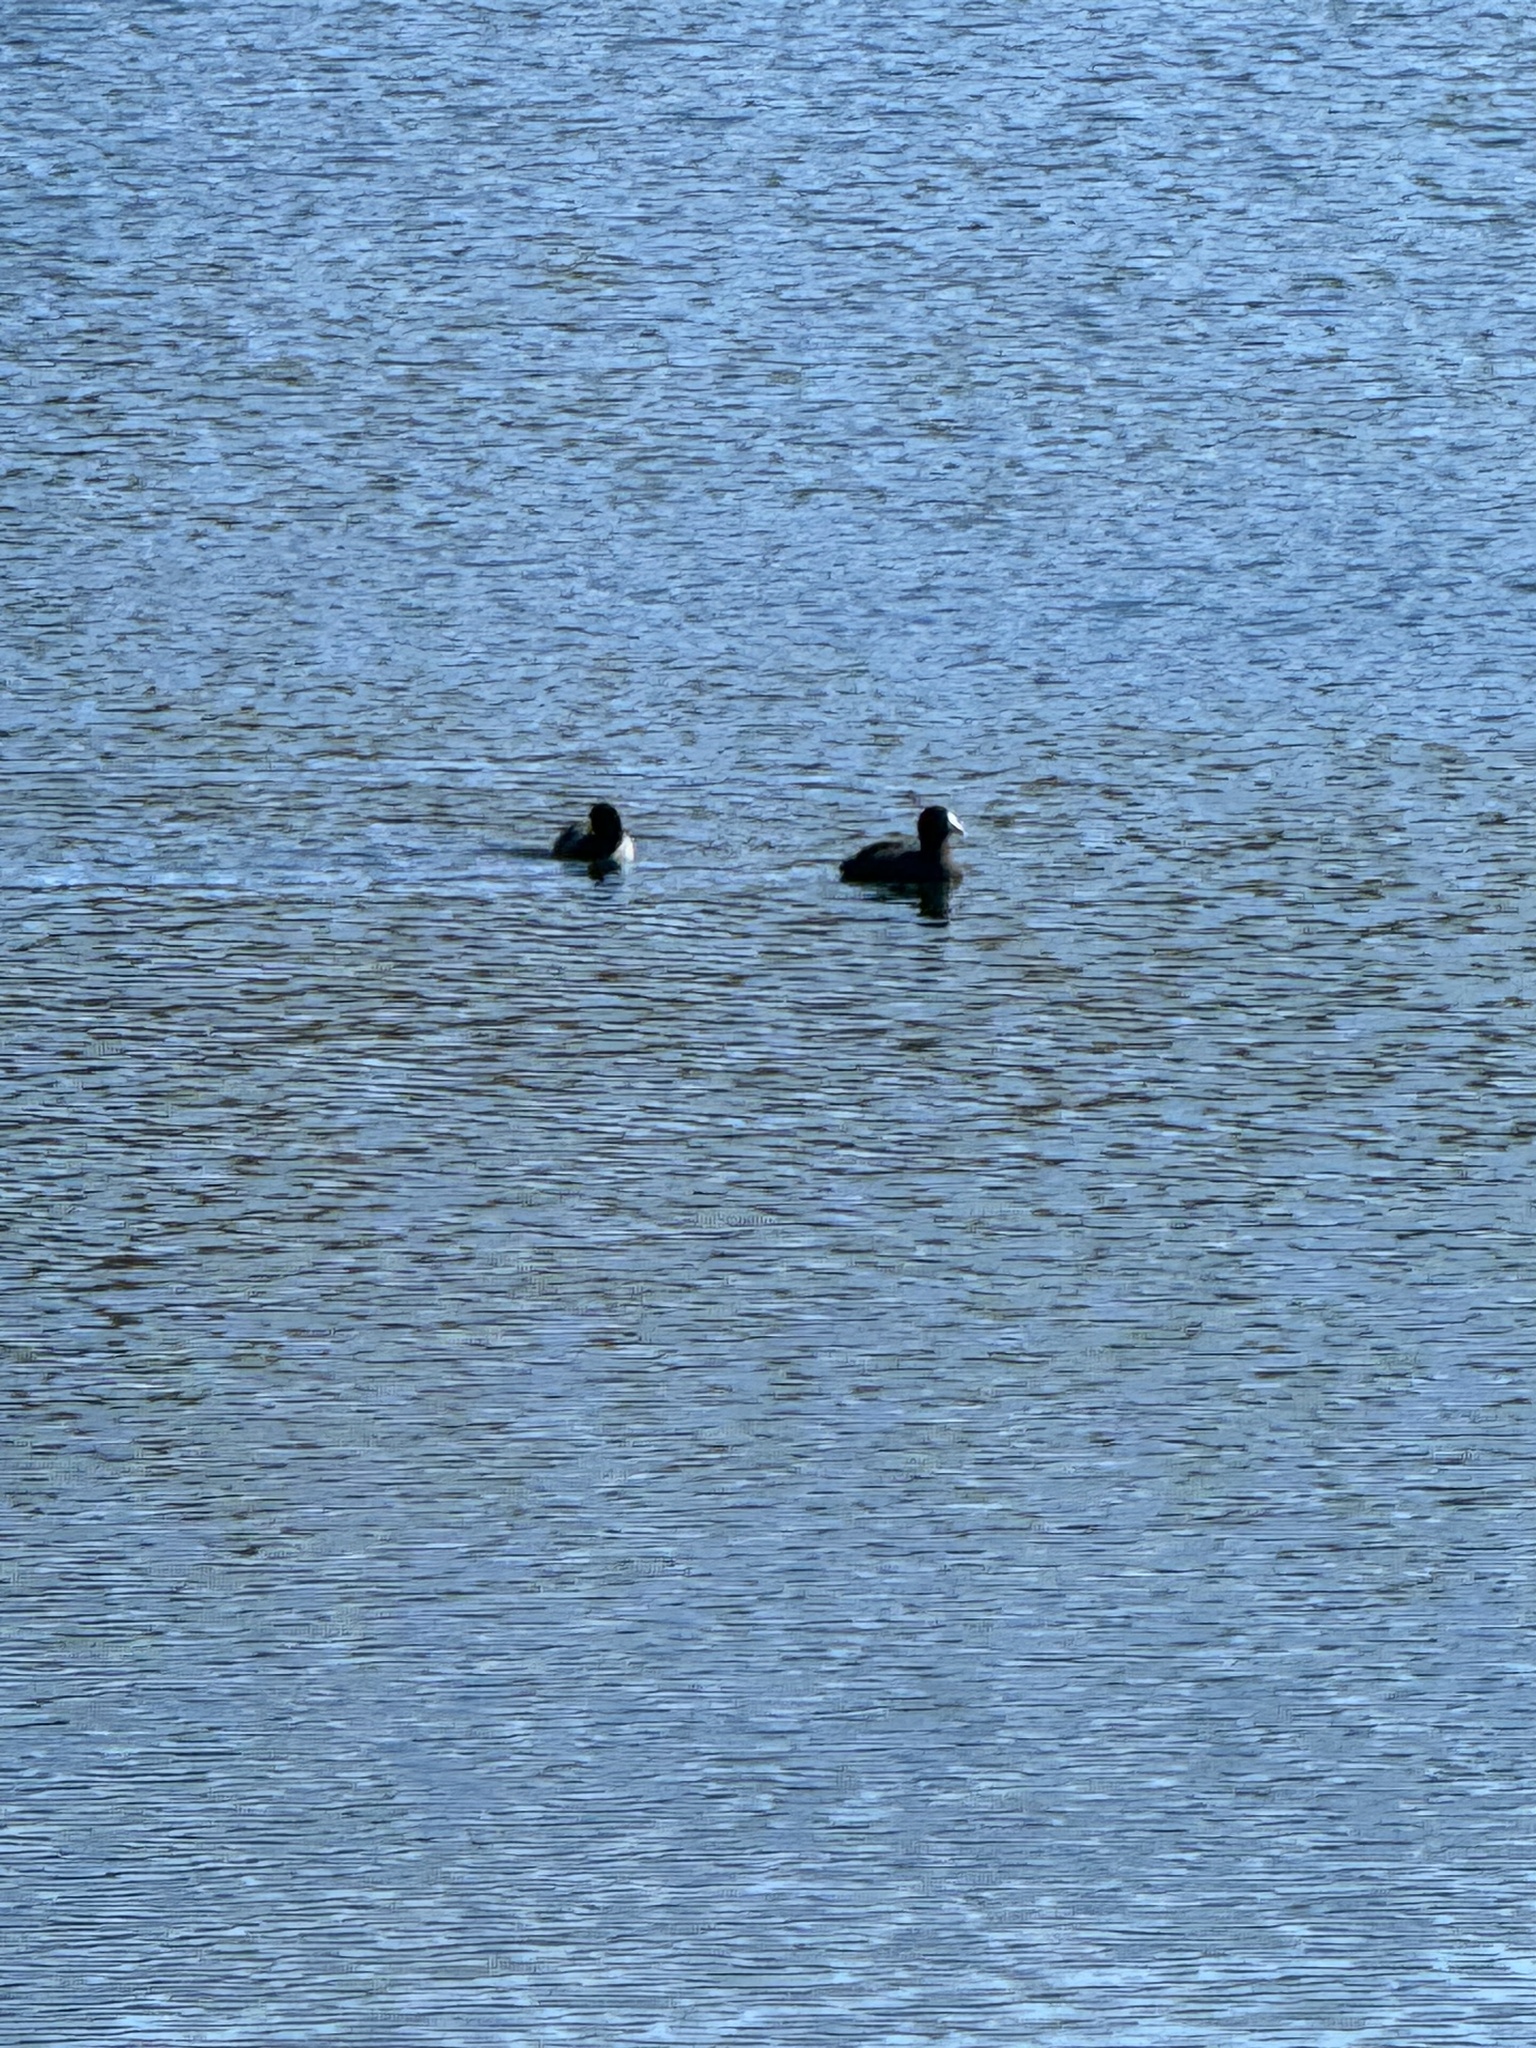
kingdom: Animalia
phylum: Chordata
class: Aves
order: Gruiformes
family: Rallidae
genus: Fulica
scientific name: Fulica americana
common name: American coot
